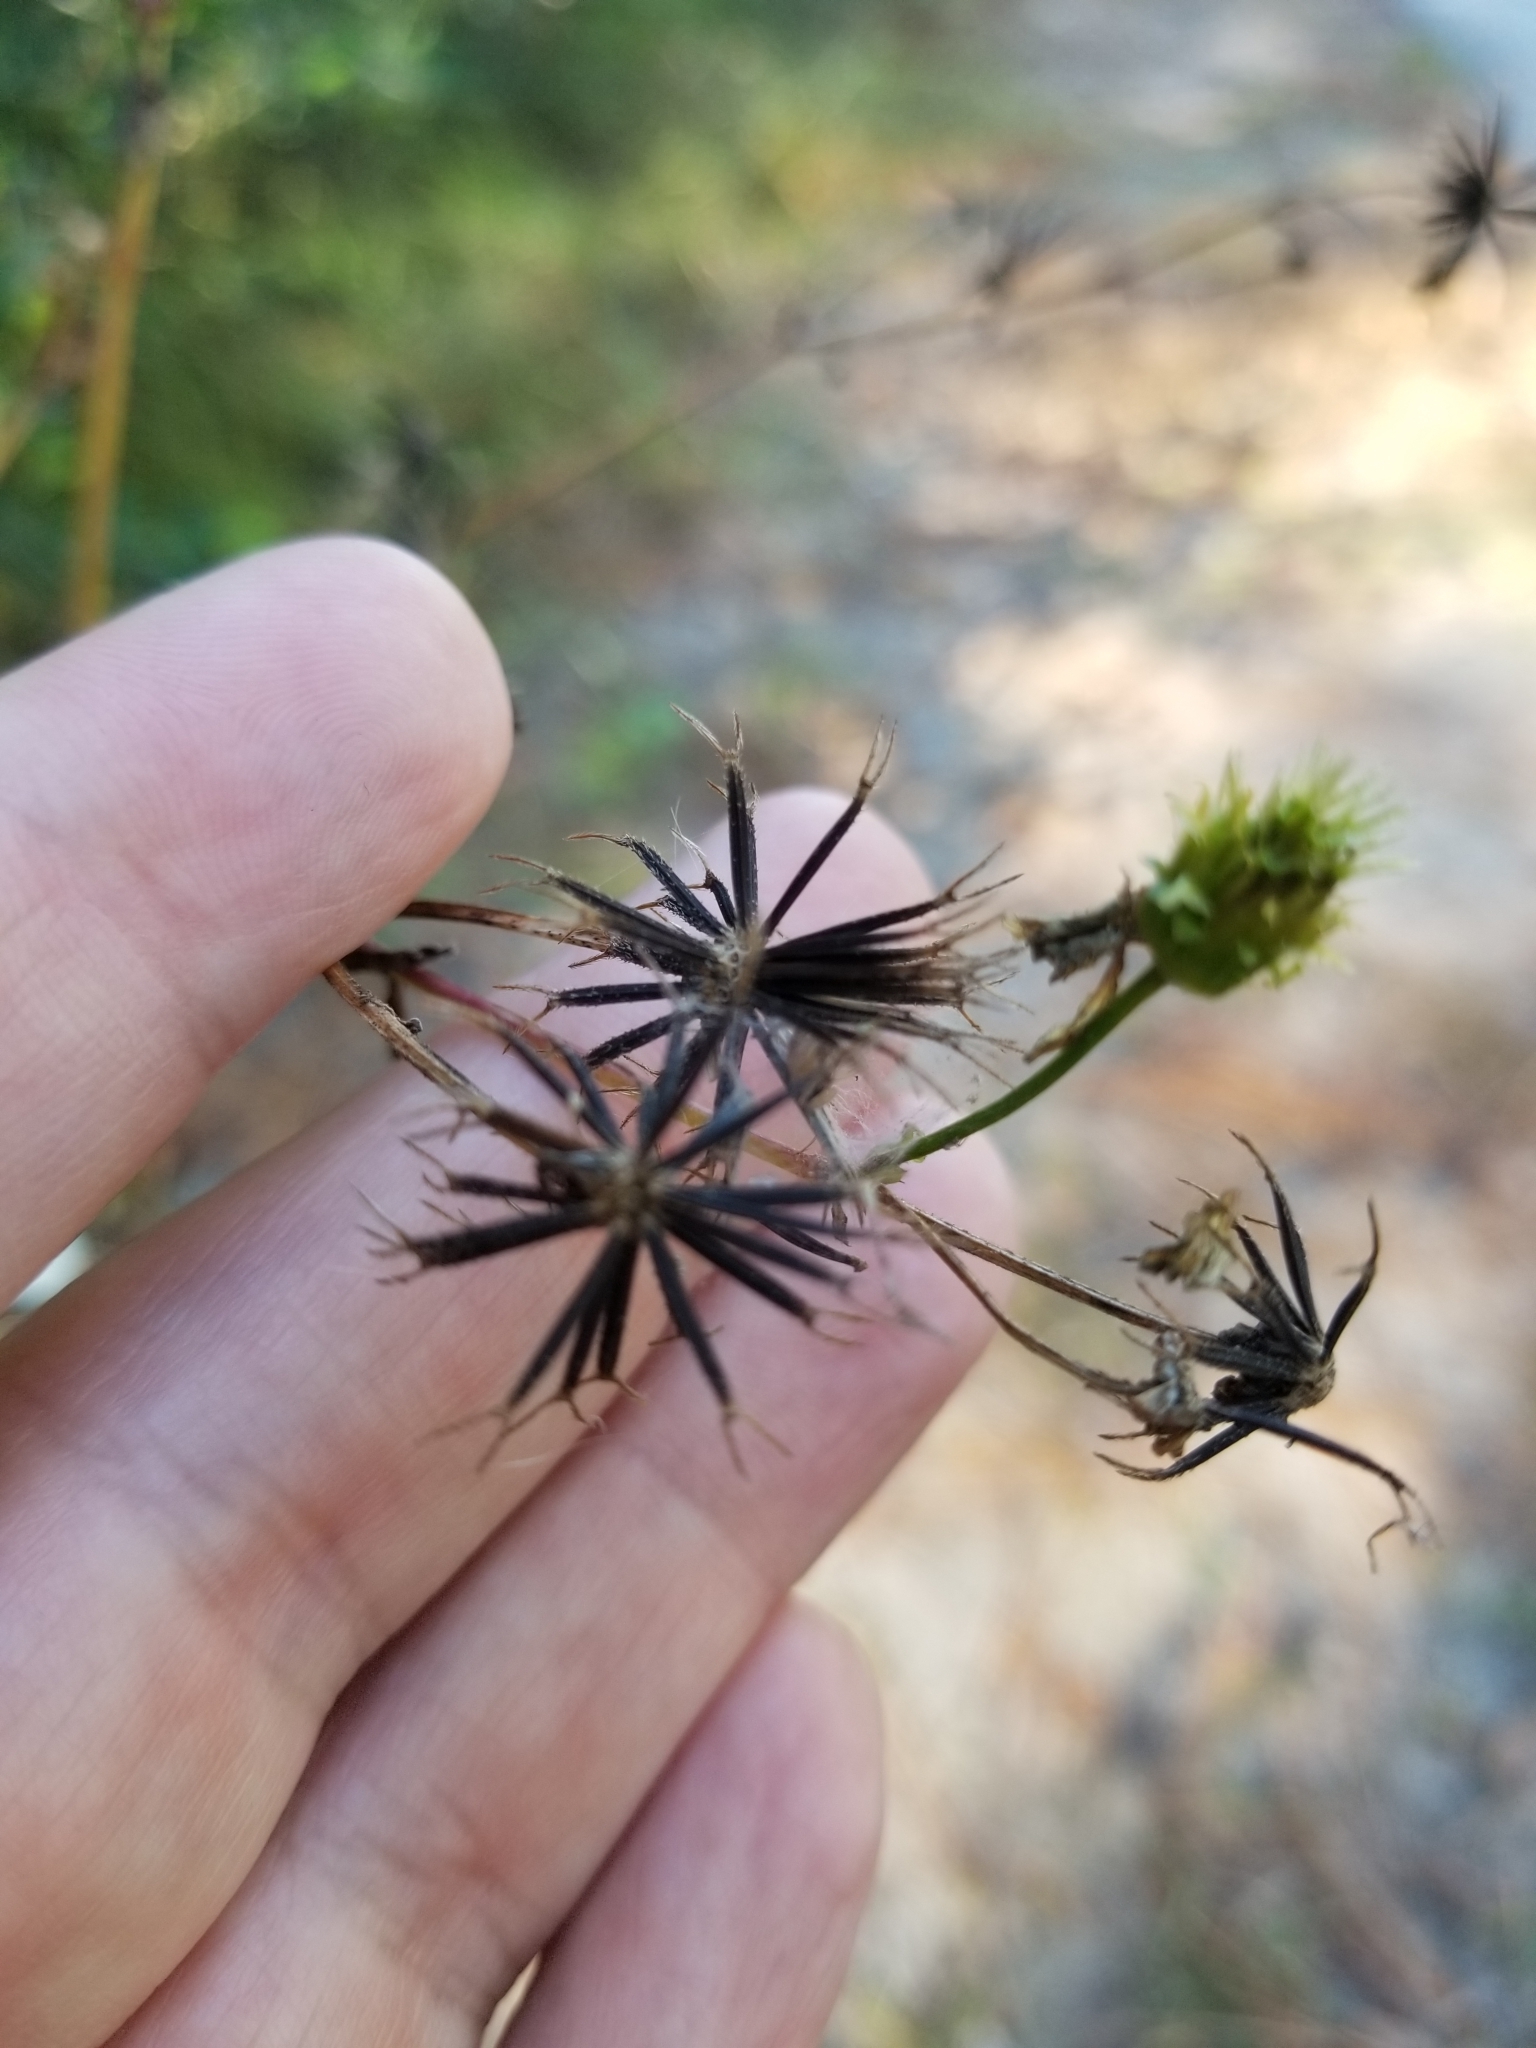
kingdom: Plantae
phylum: Tracheophyta
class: Magnoliopsida
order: Asterales
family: Asteraceae
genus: Bidens
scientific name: Bidens alba
